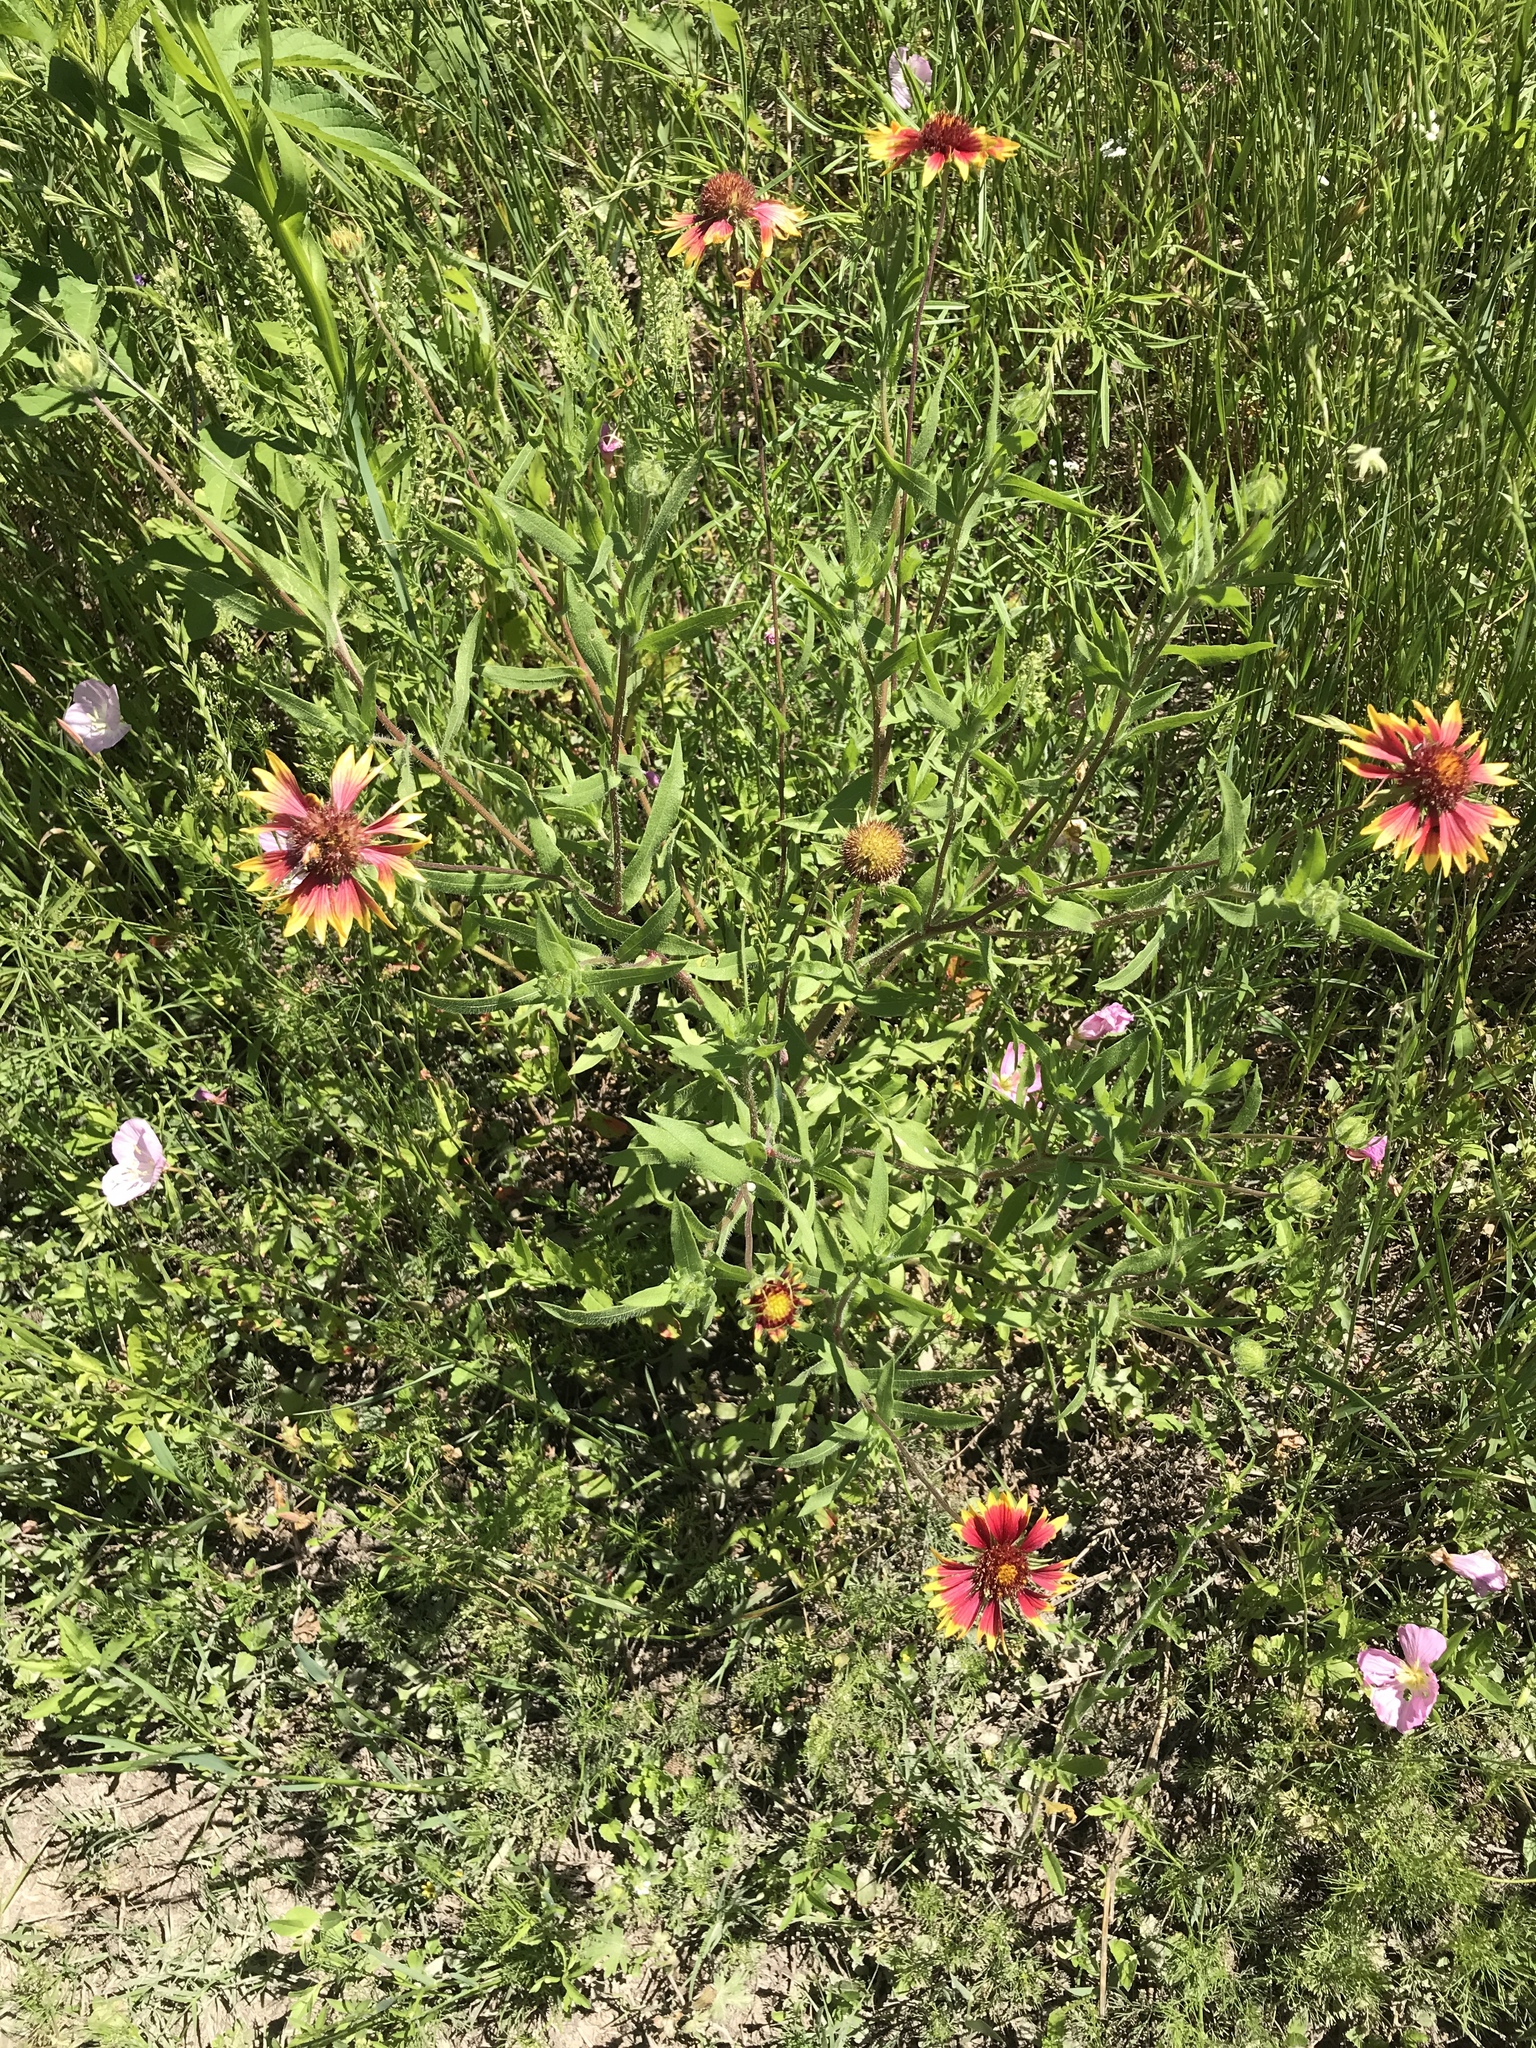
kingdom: Plantae
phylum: Tracheophyta
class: Magnoliopsida
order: Asterales
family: Asteraceae
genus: Gaillardia
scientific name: Gaillardia pulchella
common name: Firewheel
